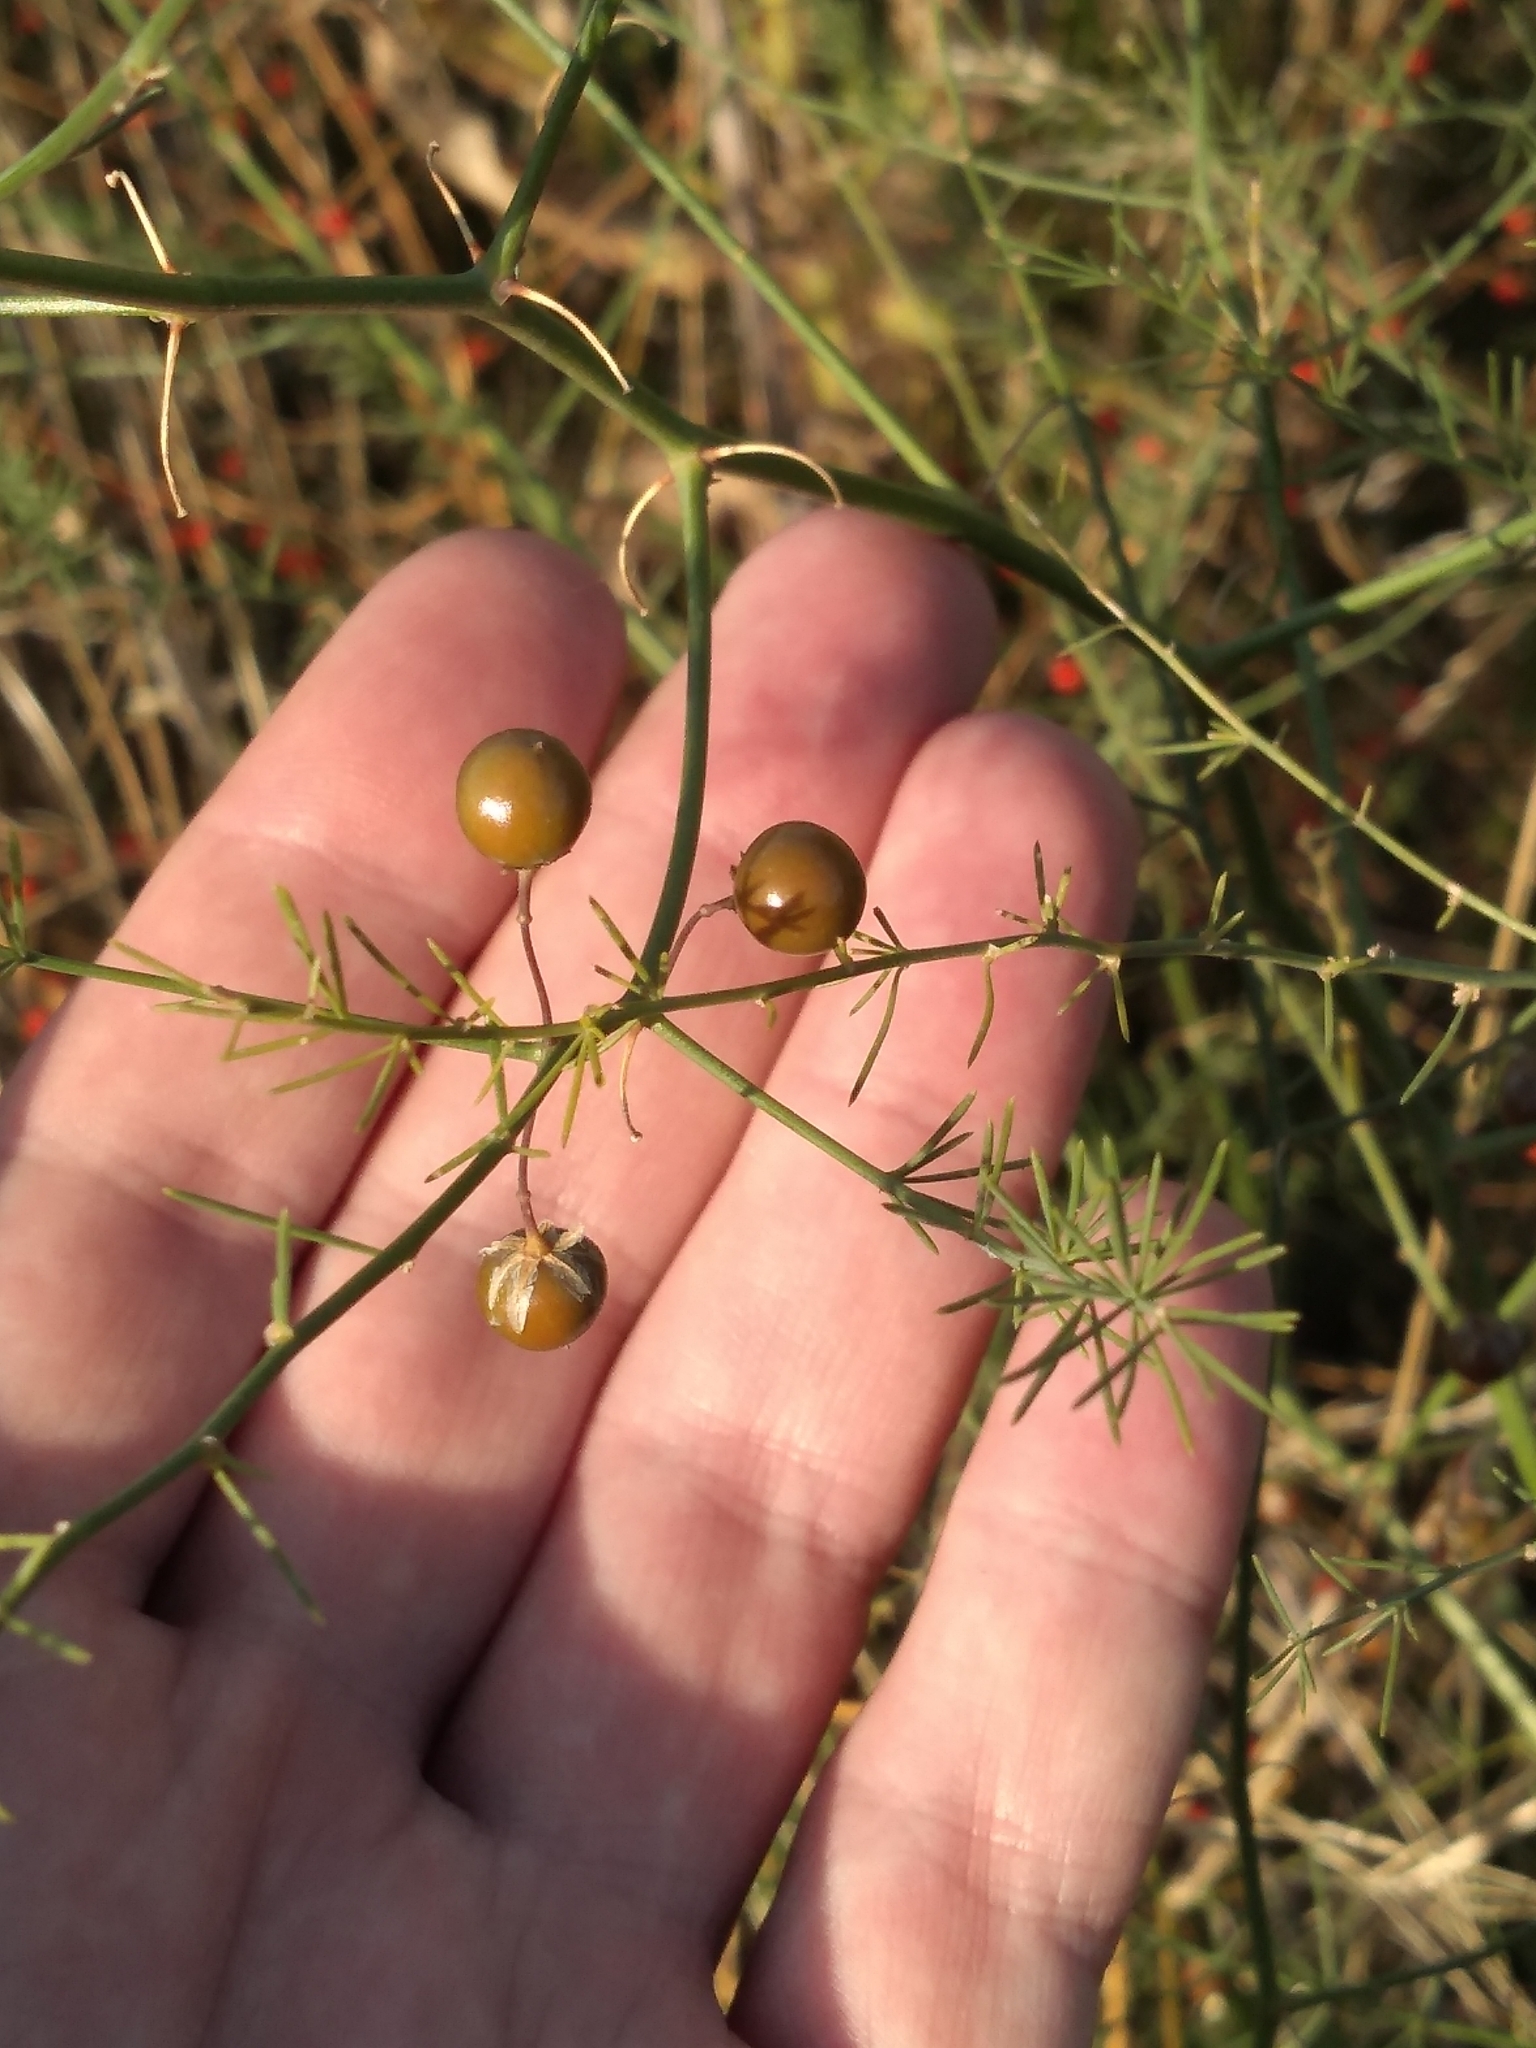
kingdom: Plantae
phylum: Tracheophyta
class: Liliopsida
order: Asparagales
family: Asparagaceae
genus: Asparagus
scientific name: Asparagus officinalis
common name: Garden asparagus
